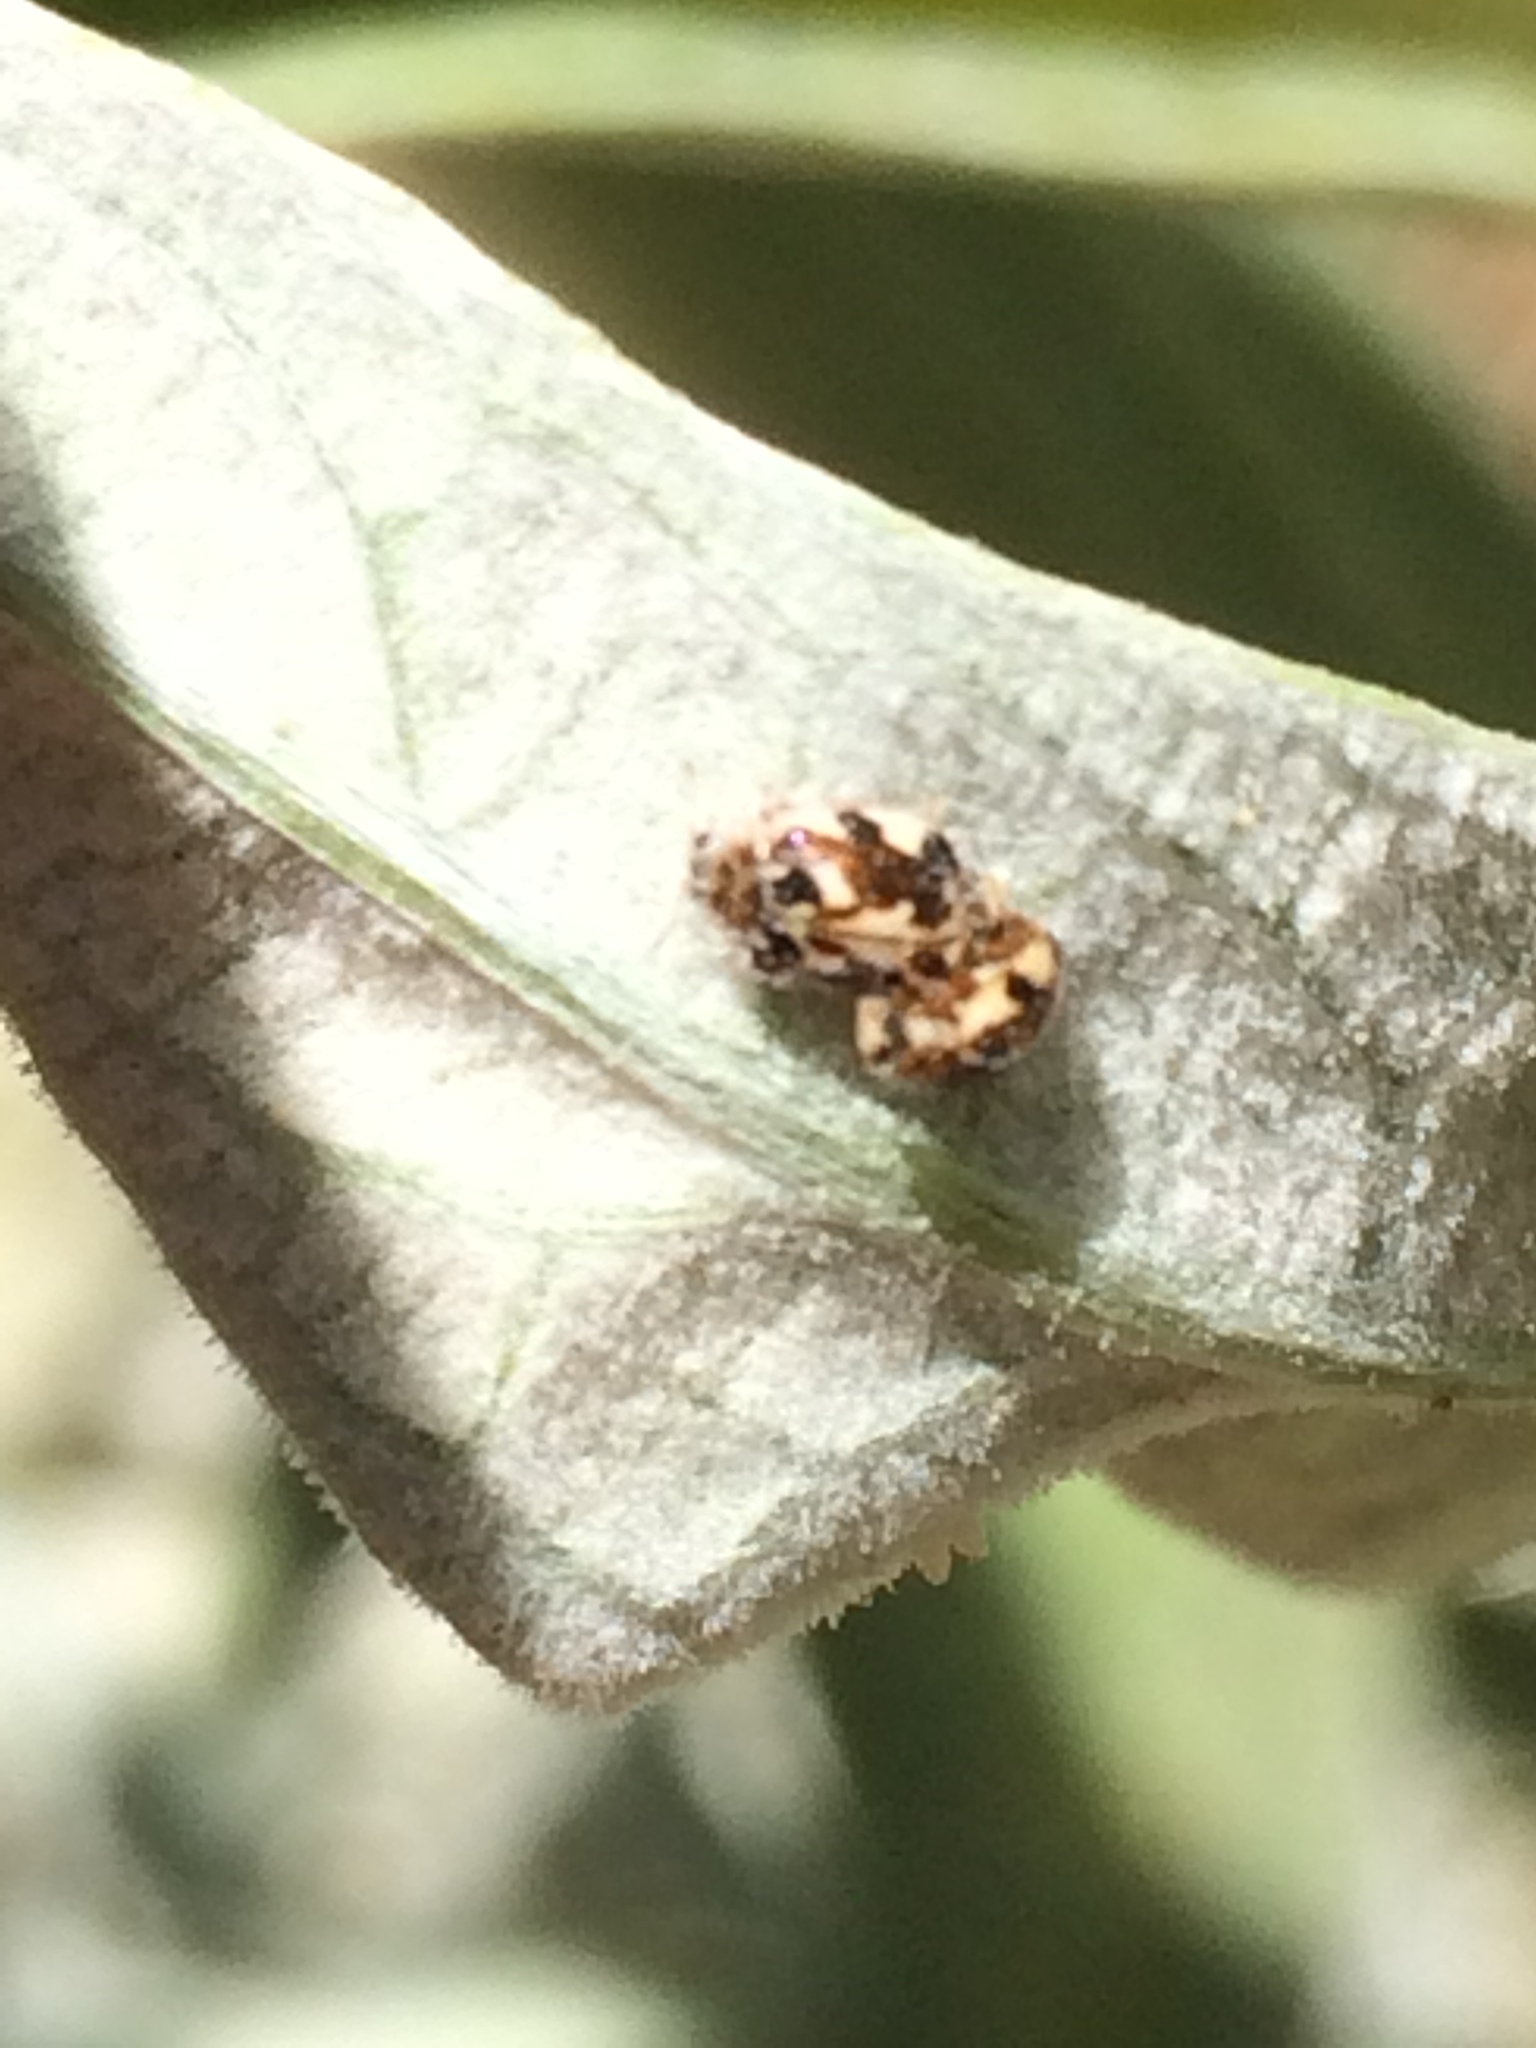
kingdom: Animalia
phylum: Arthropoda
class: Insecta
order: Coleoptera
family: Coccinellidae
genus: Psyllobora
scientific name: Psyllobora vigintimaculata
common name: Ladybird beetle
